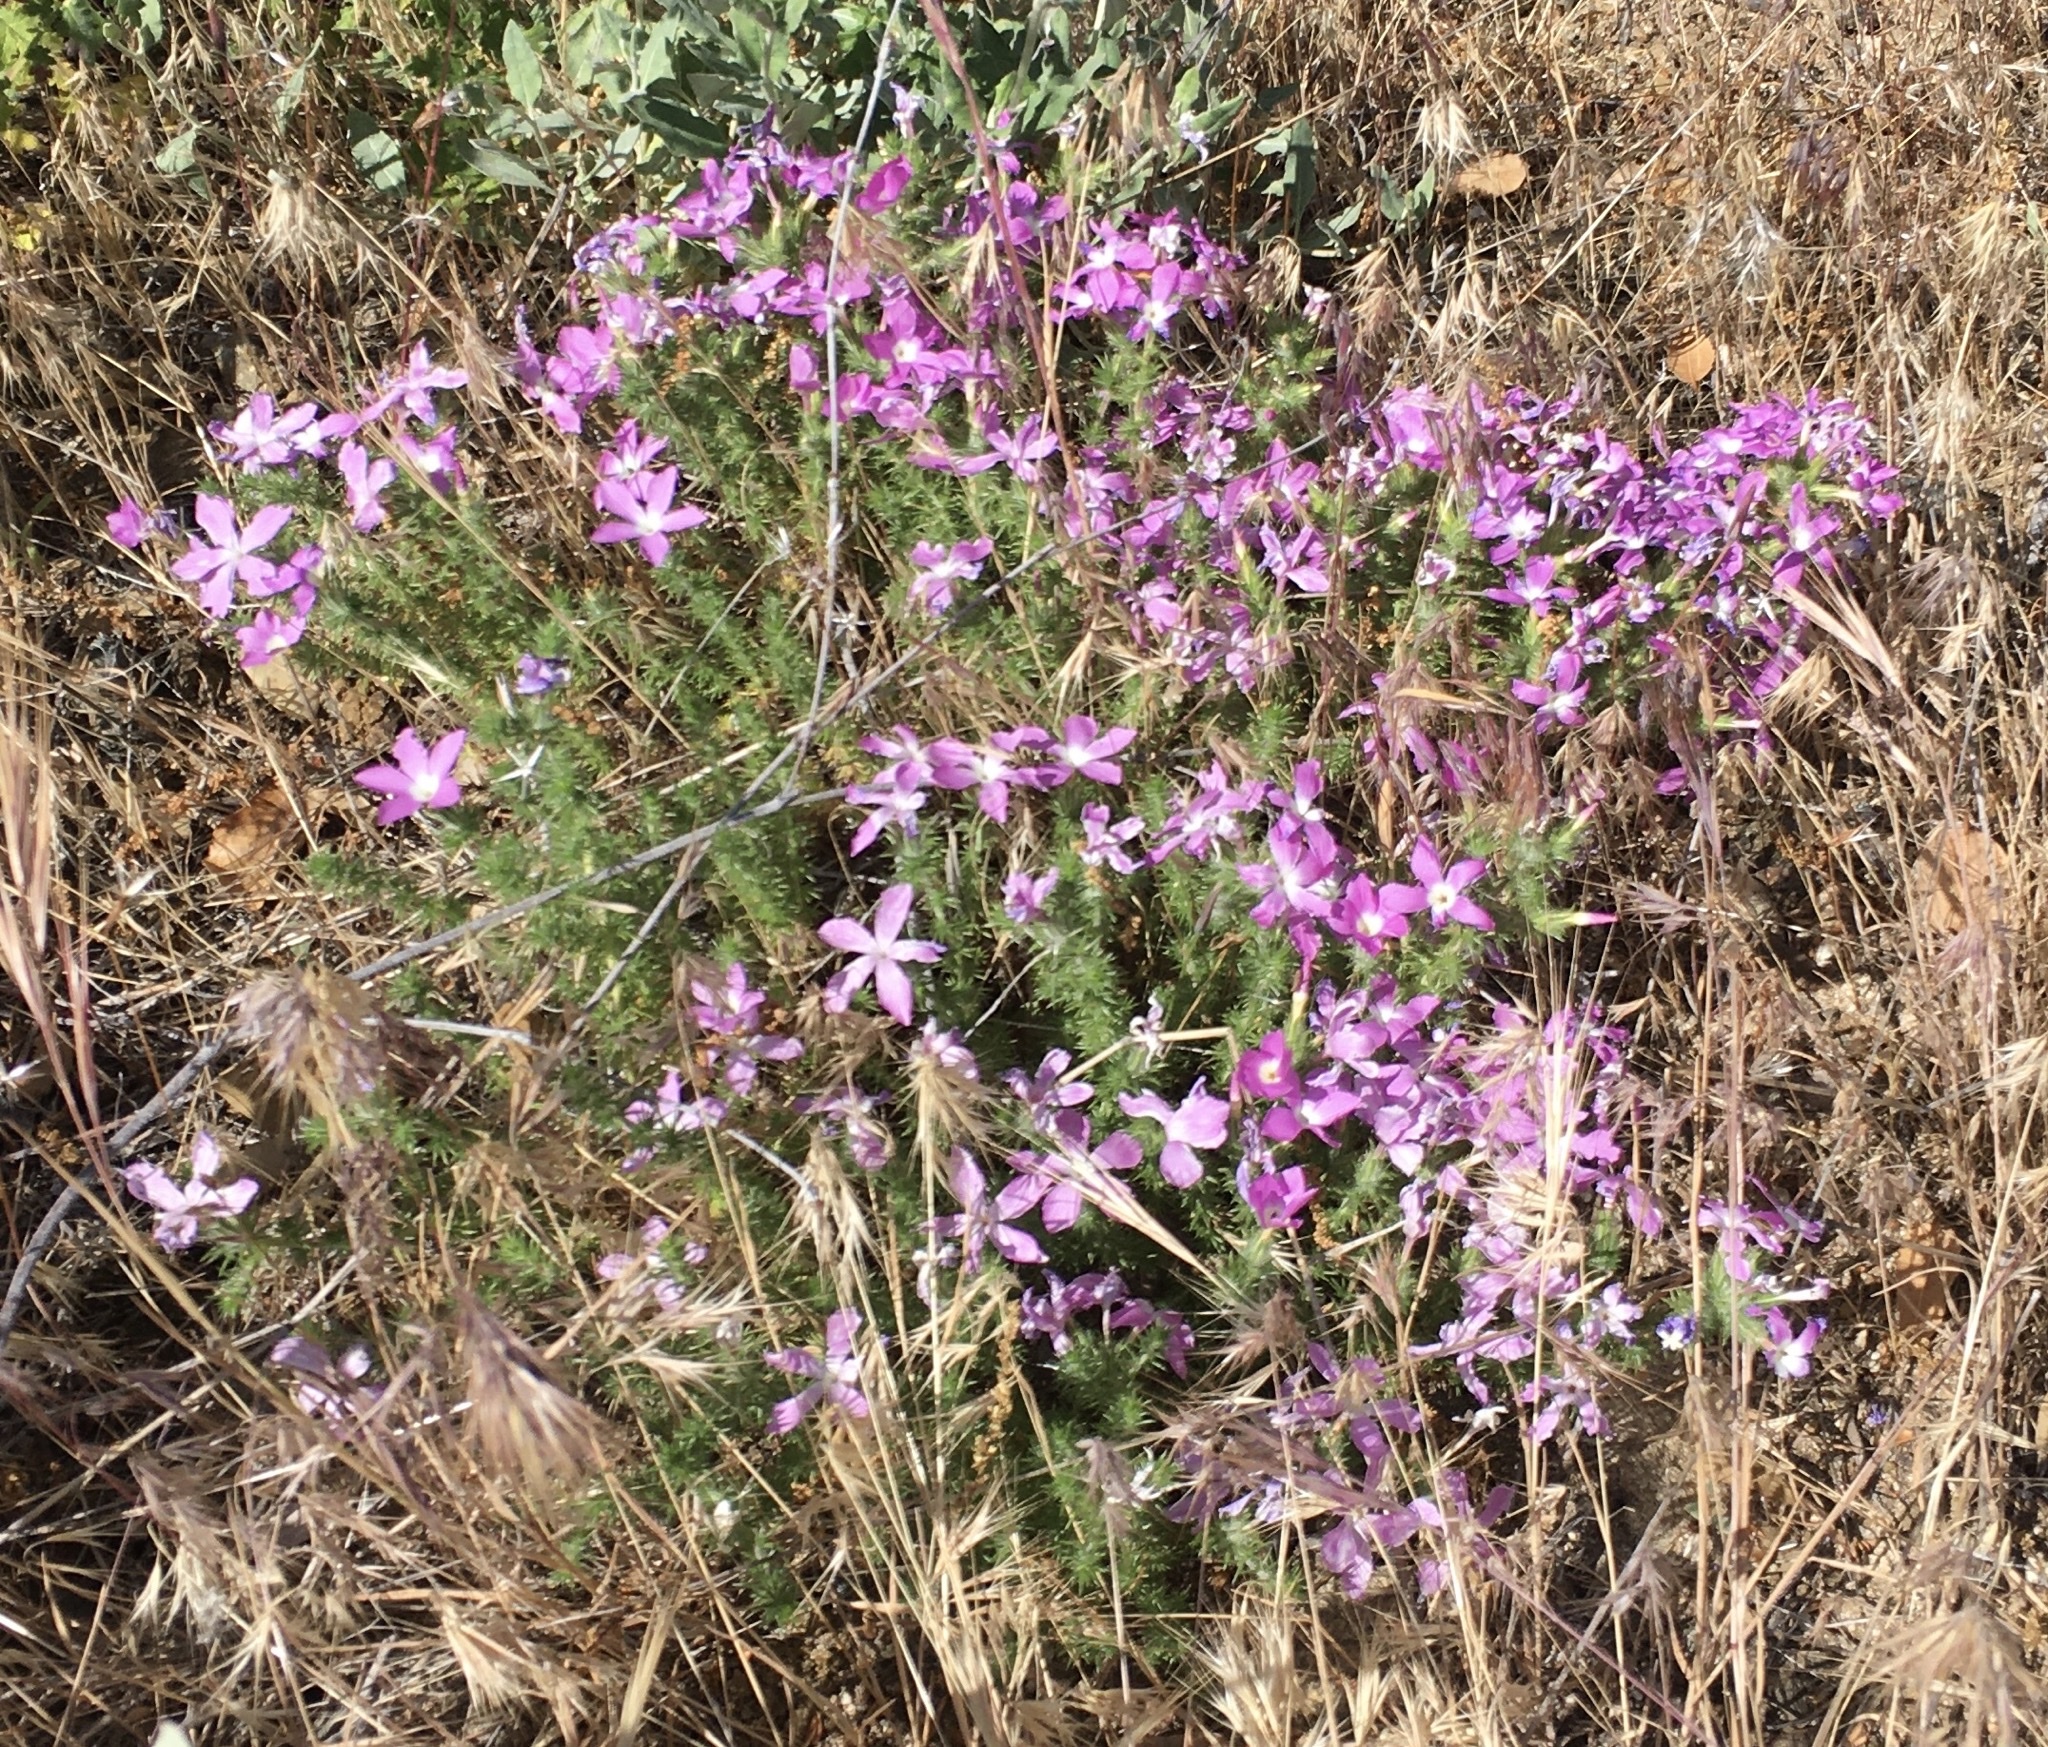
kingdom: Plantae
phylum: Tracheophyta
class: Magnoliopsida
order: Ericales
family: Polemoniaceae
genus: Linanthus
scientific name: Linanthus californicus
